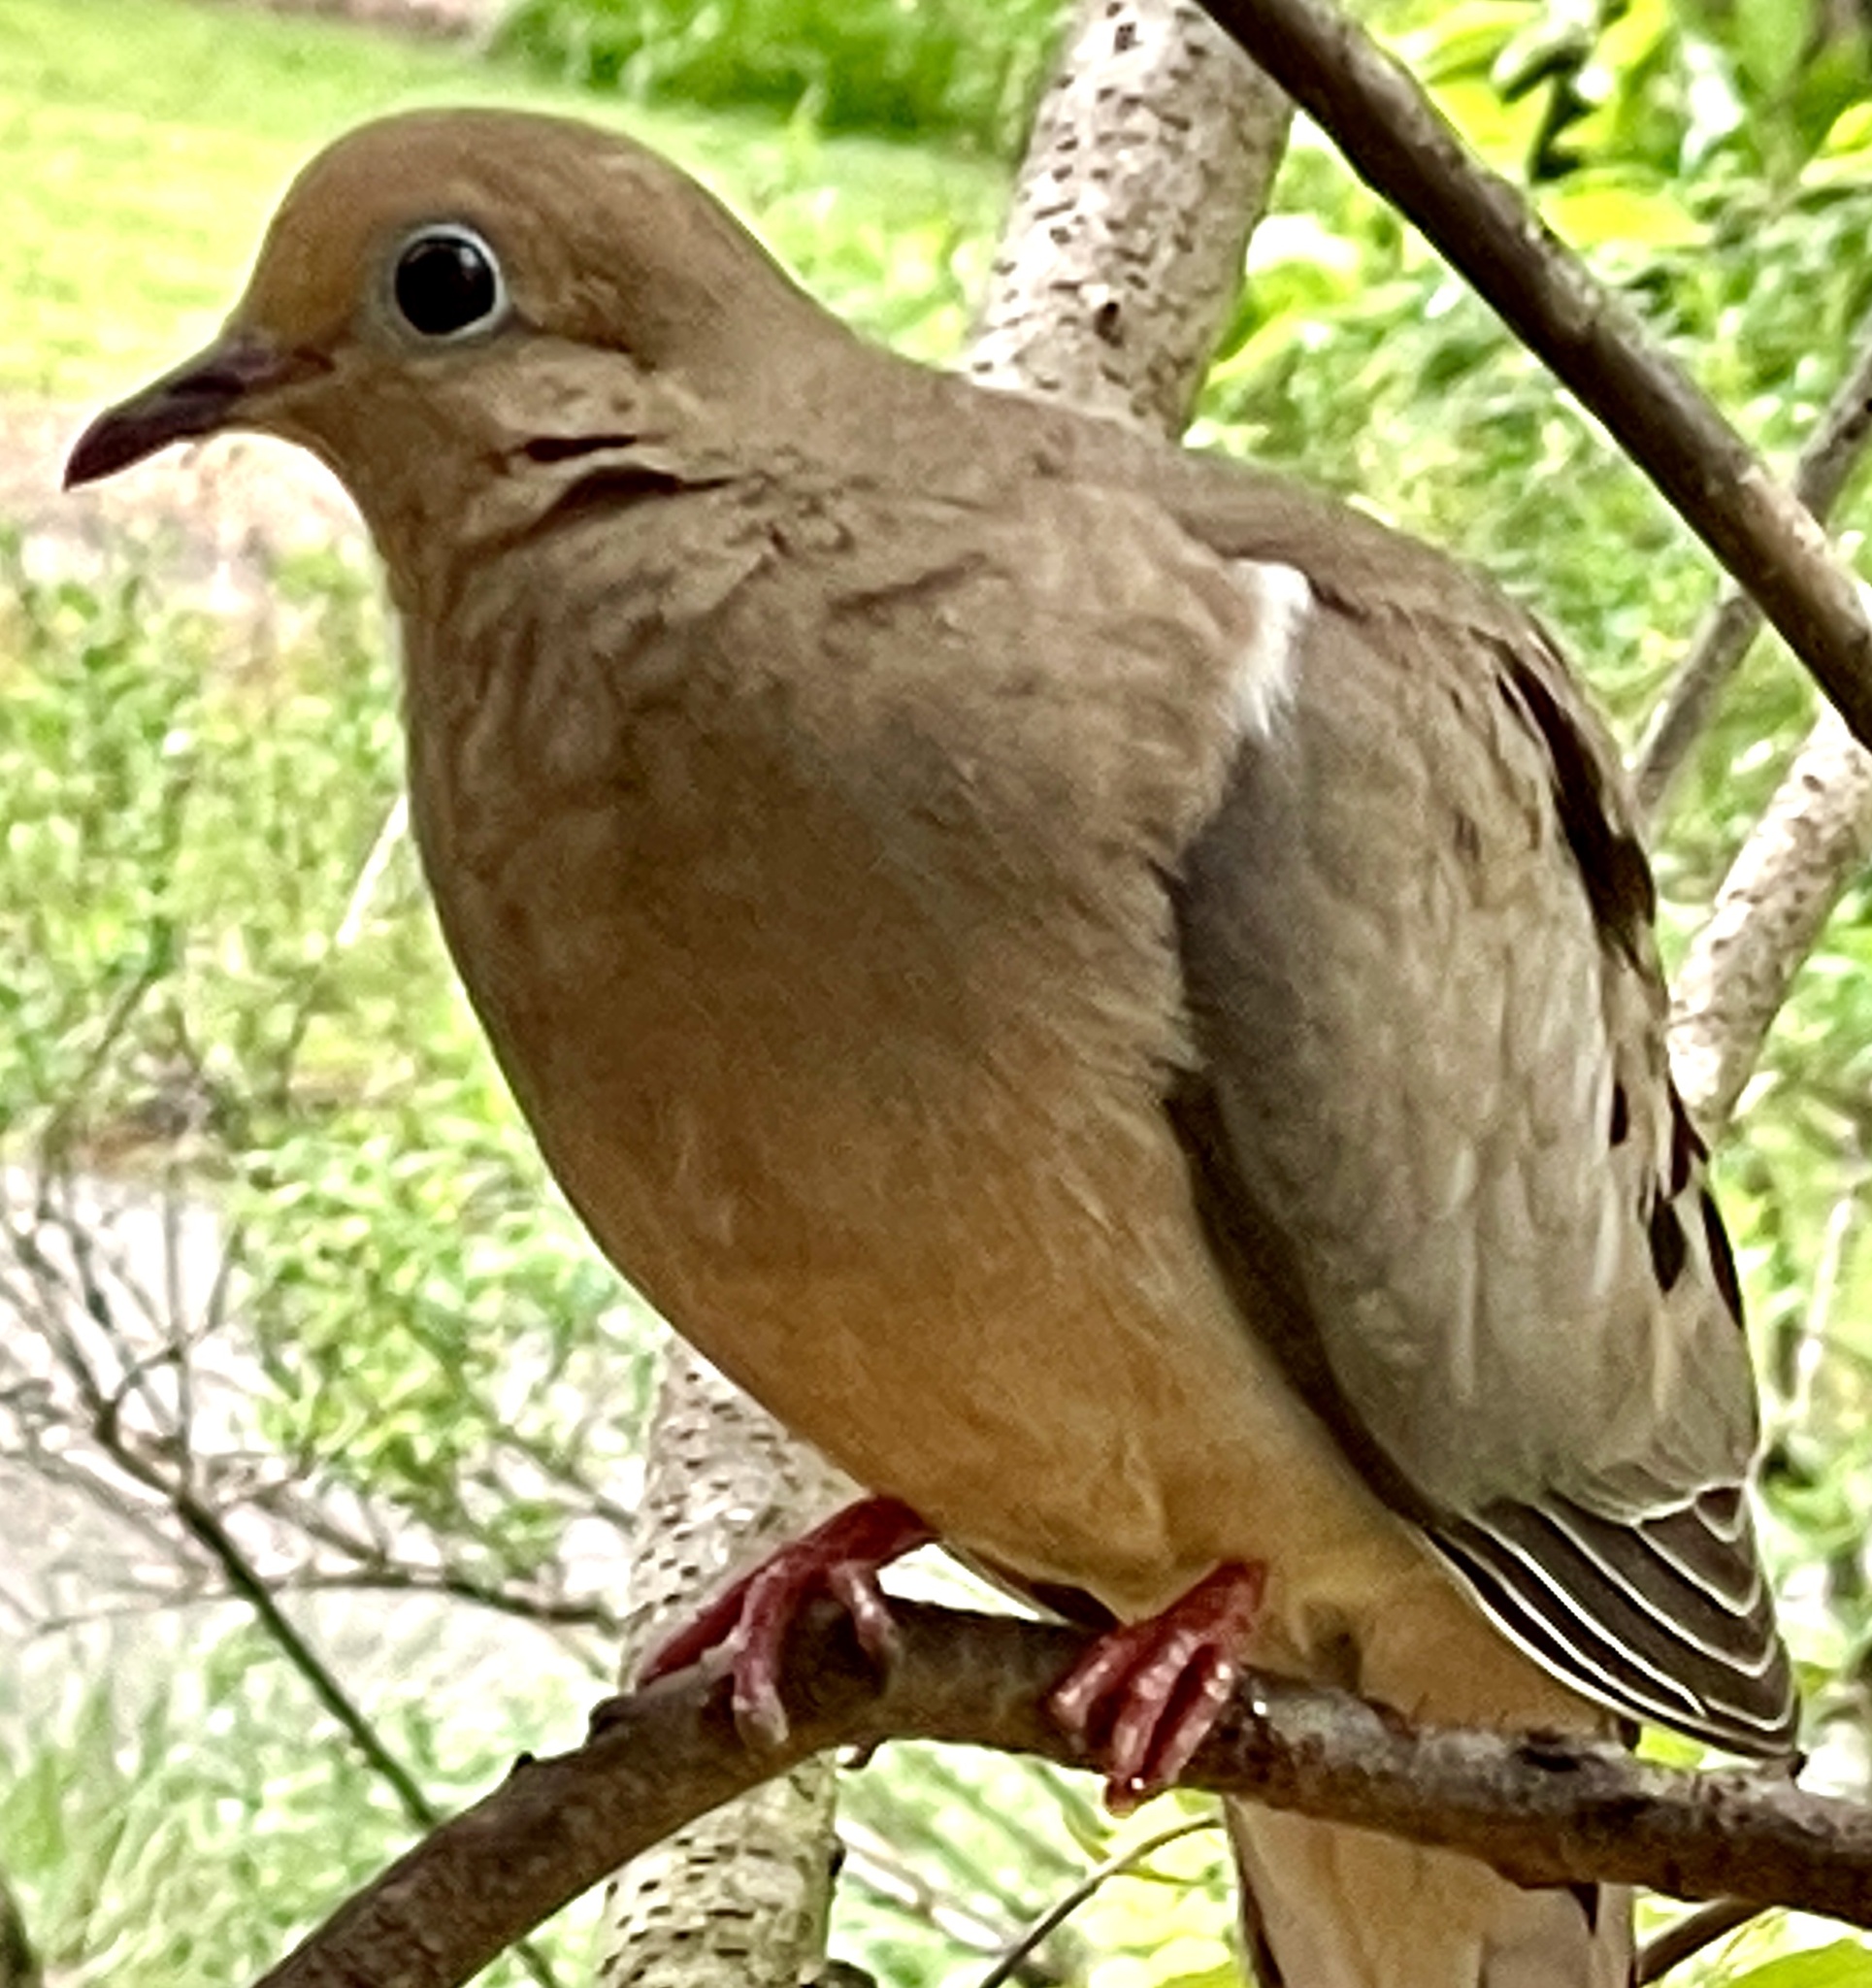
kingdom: Animalia
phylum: Chordata
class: Aves
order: Columbiformes
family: Columbidae
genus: Zenaida
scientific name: Zenaida macroura
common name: Mourning dove
